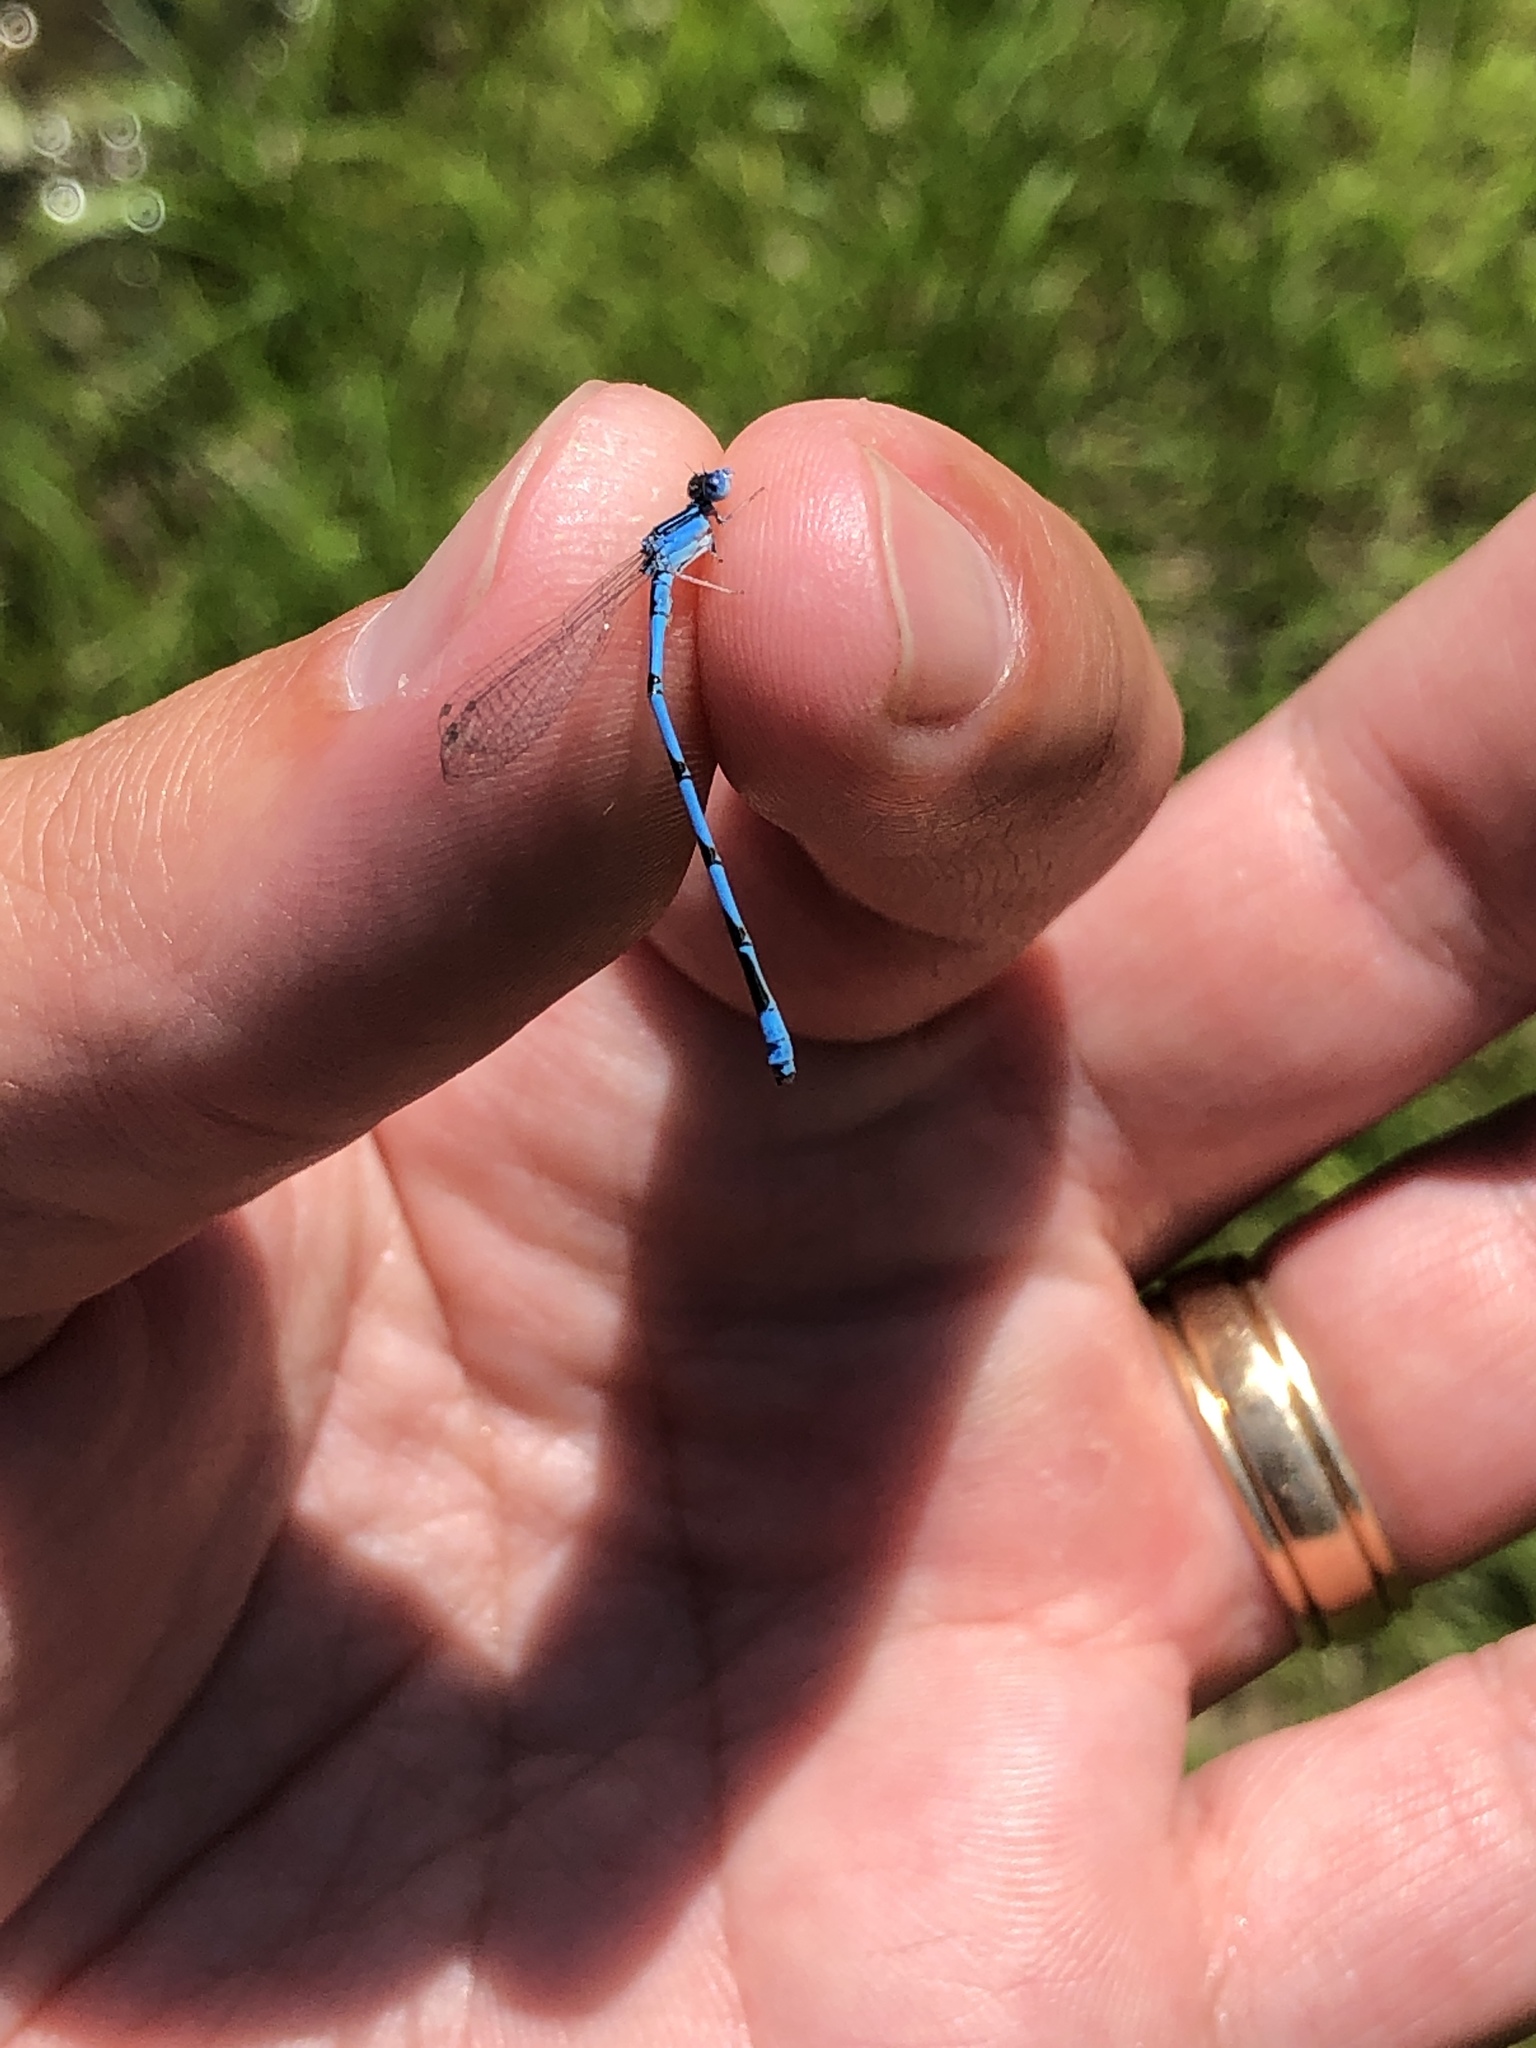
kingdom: Animalia
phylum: Arthropoda
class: Insecta
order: Odonata
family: Coenagrionidae
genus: Enallagma
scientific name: Enallagma basidens
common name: Double-striped bluet
